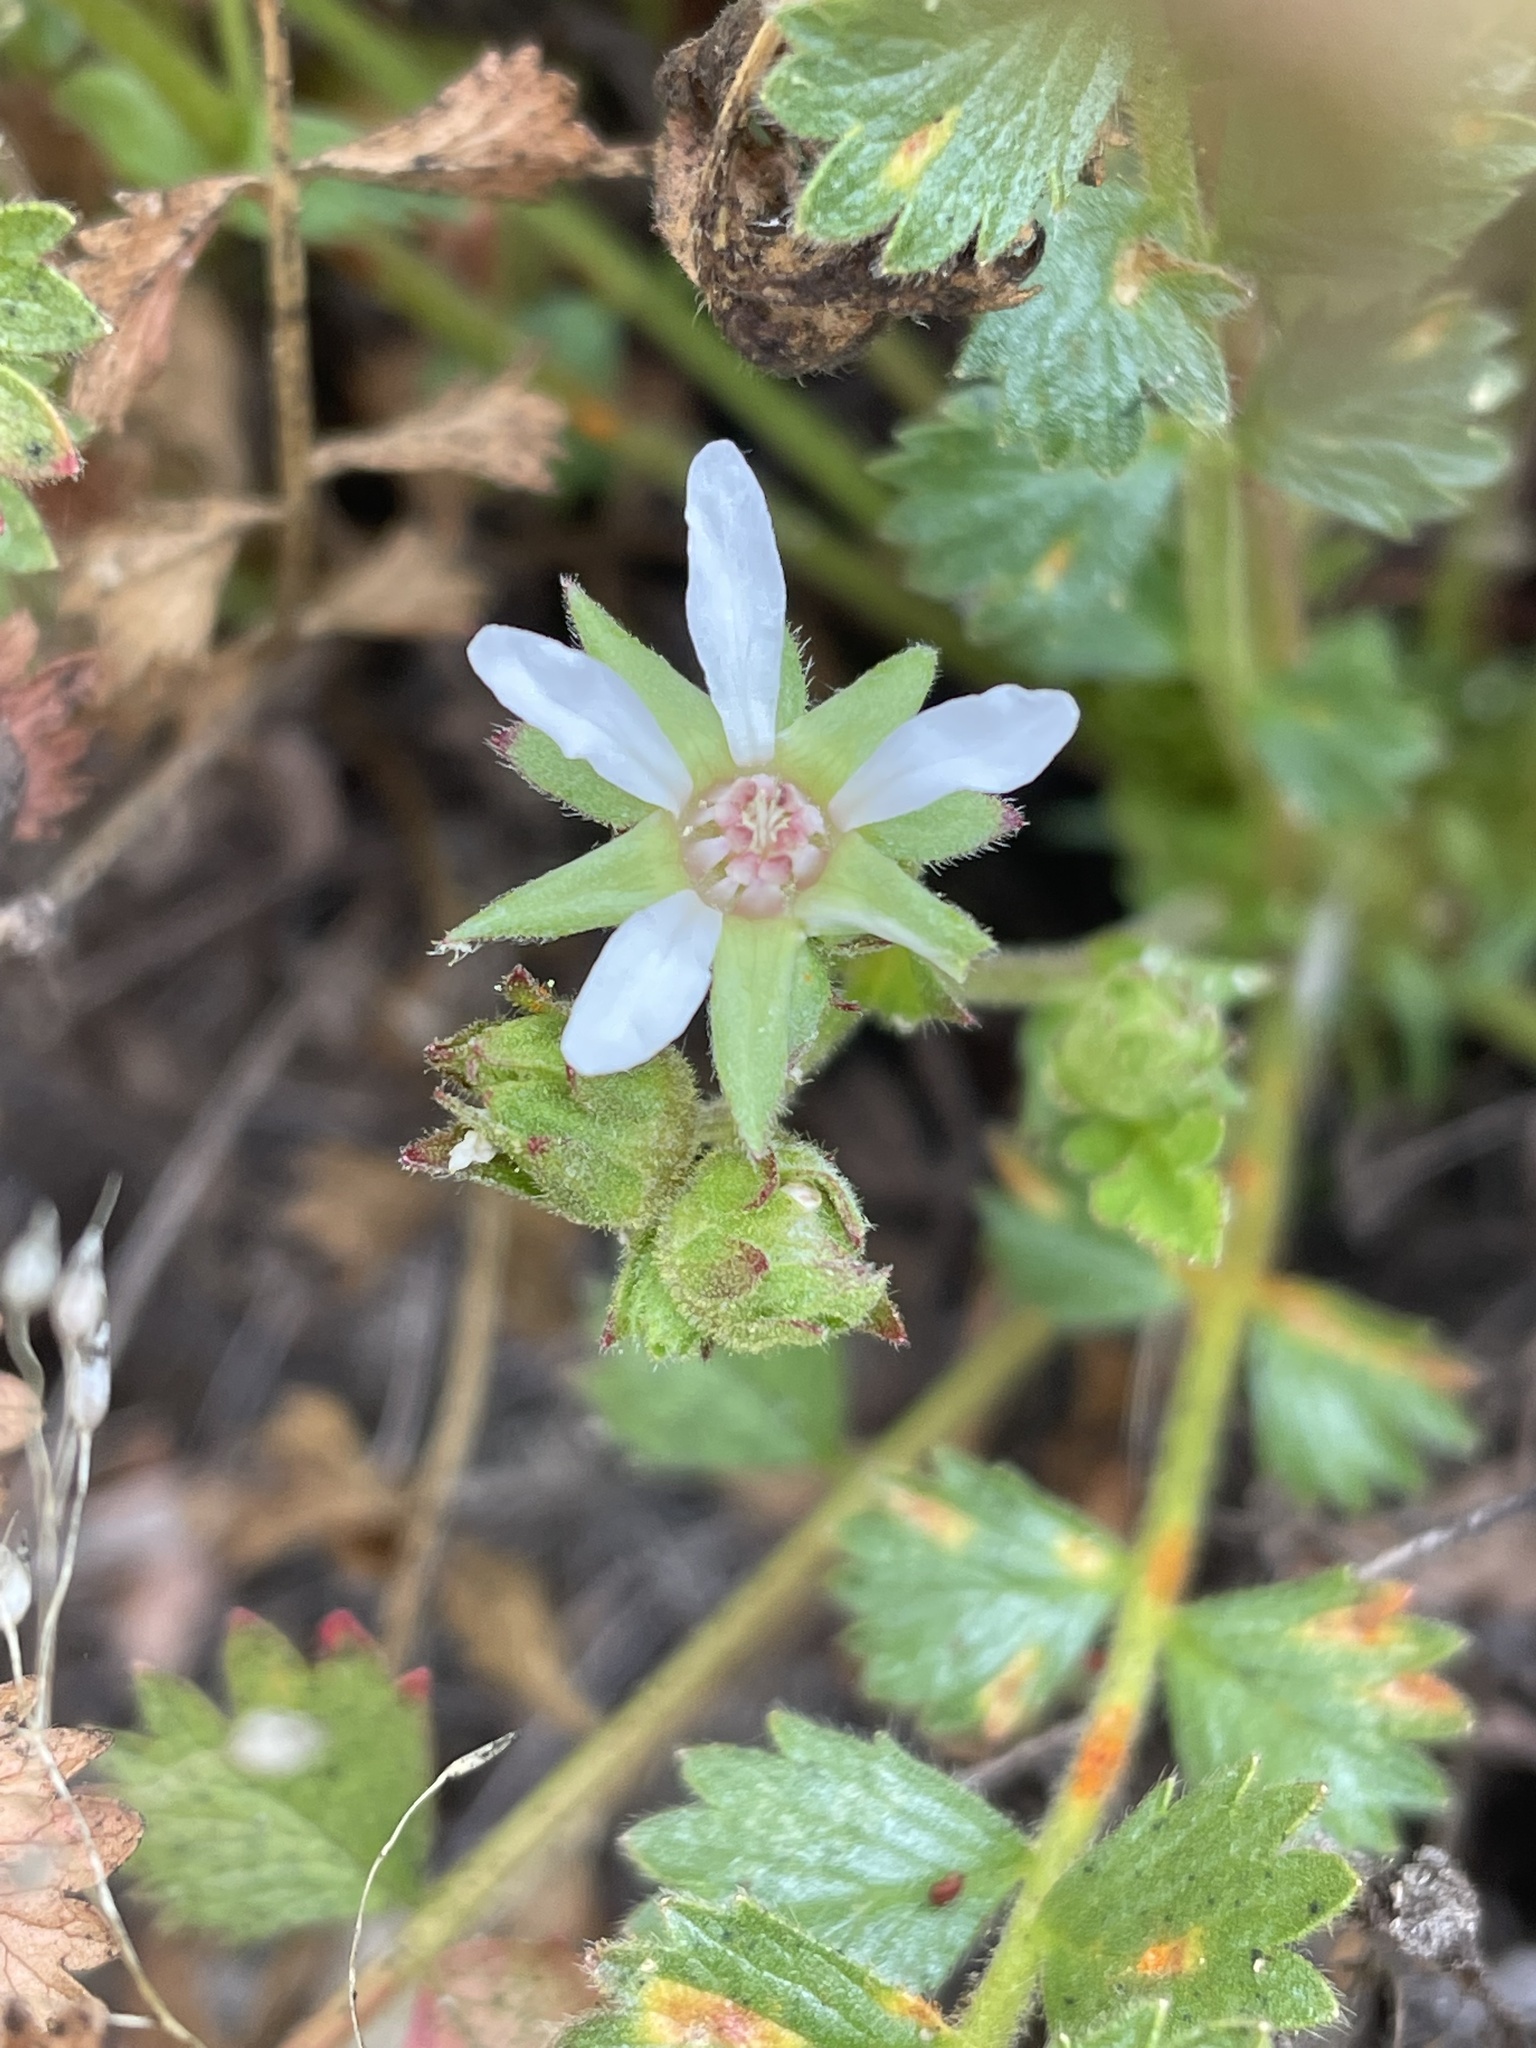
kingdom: Plantae
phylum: Tracheophyta
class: Magnoliopsida
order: Rosales
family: Rosaceae
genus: Potentilla
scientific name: Potentilla
